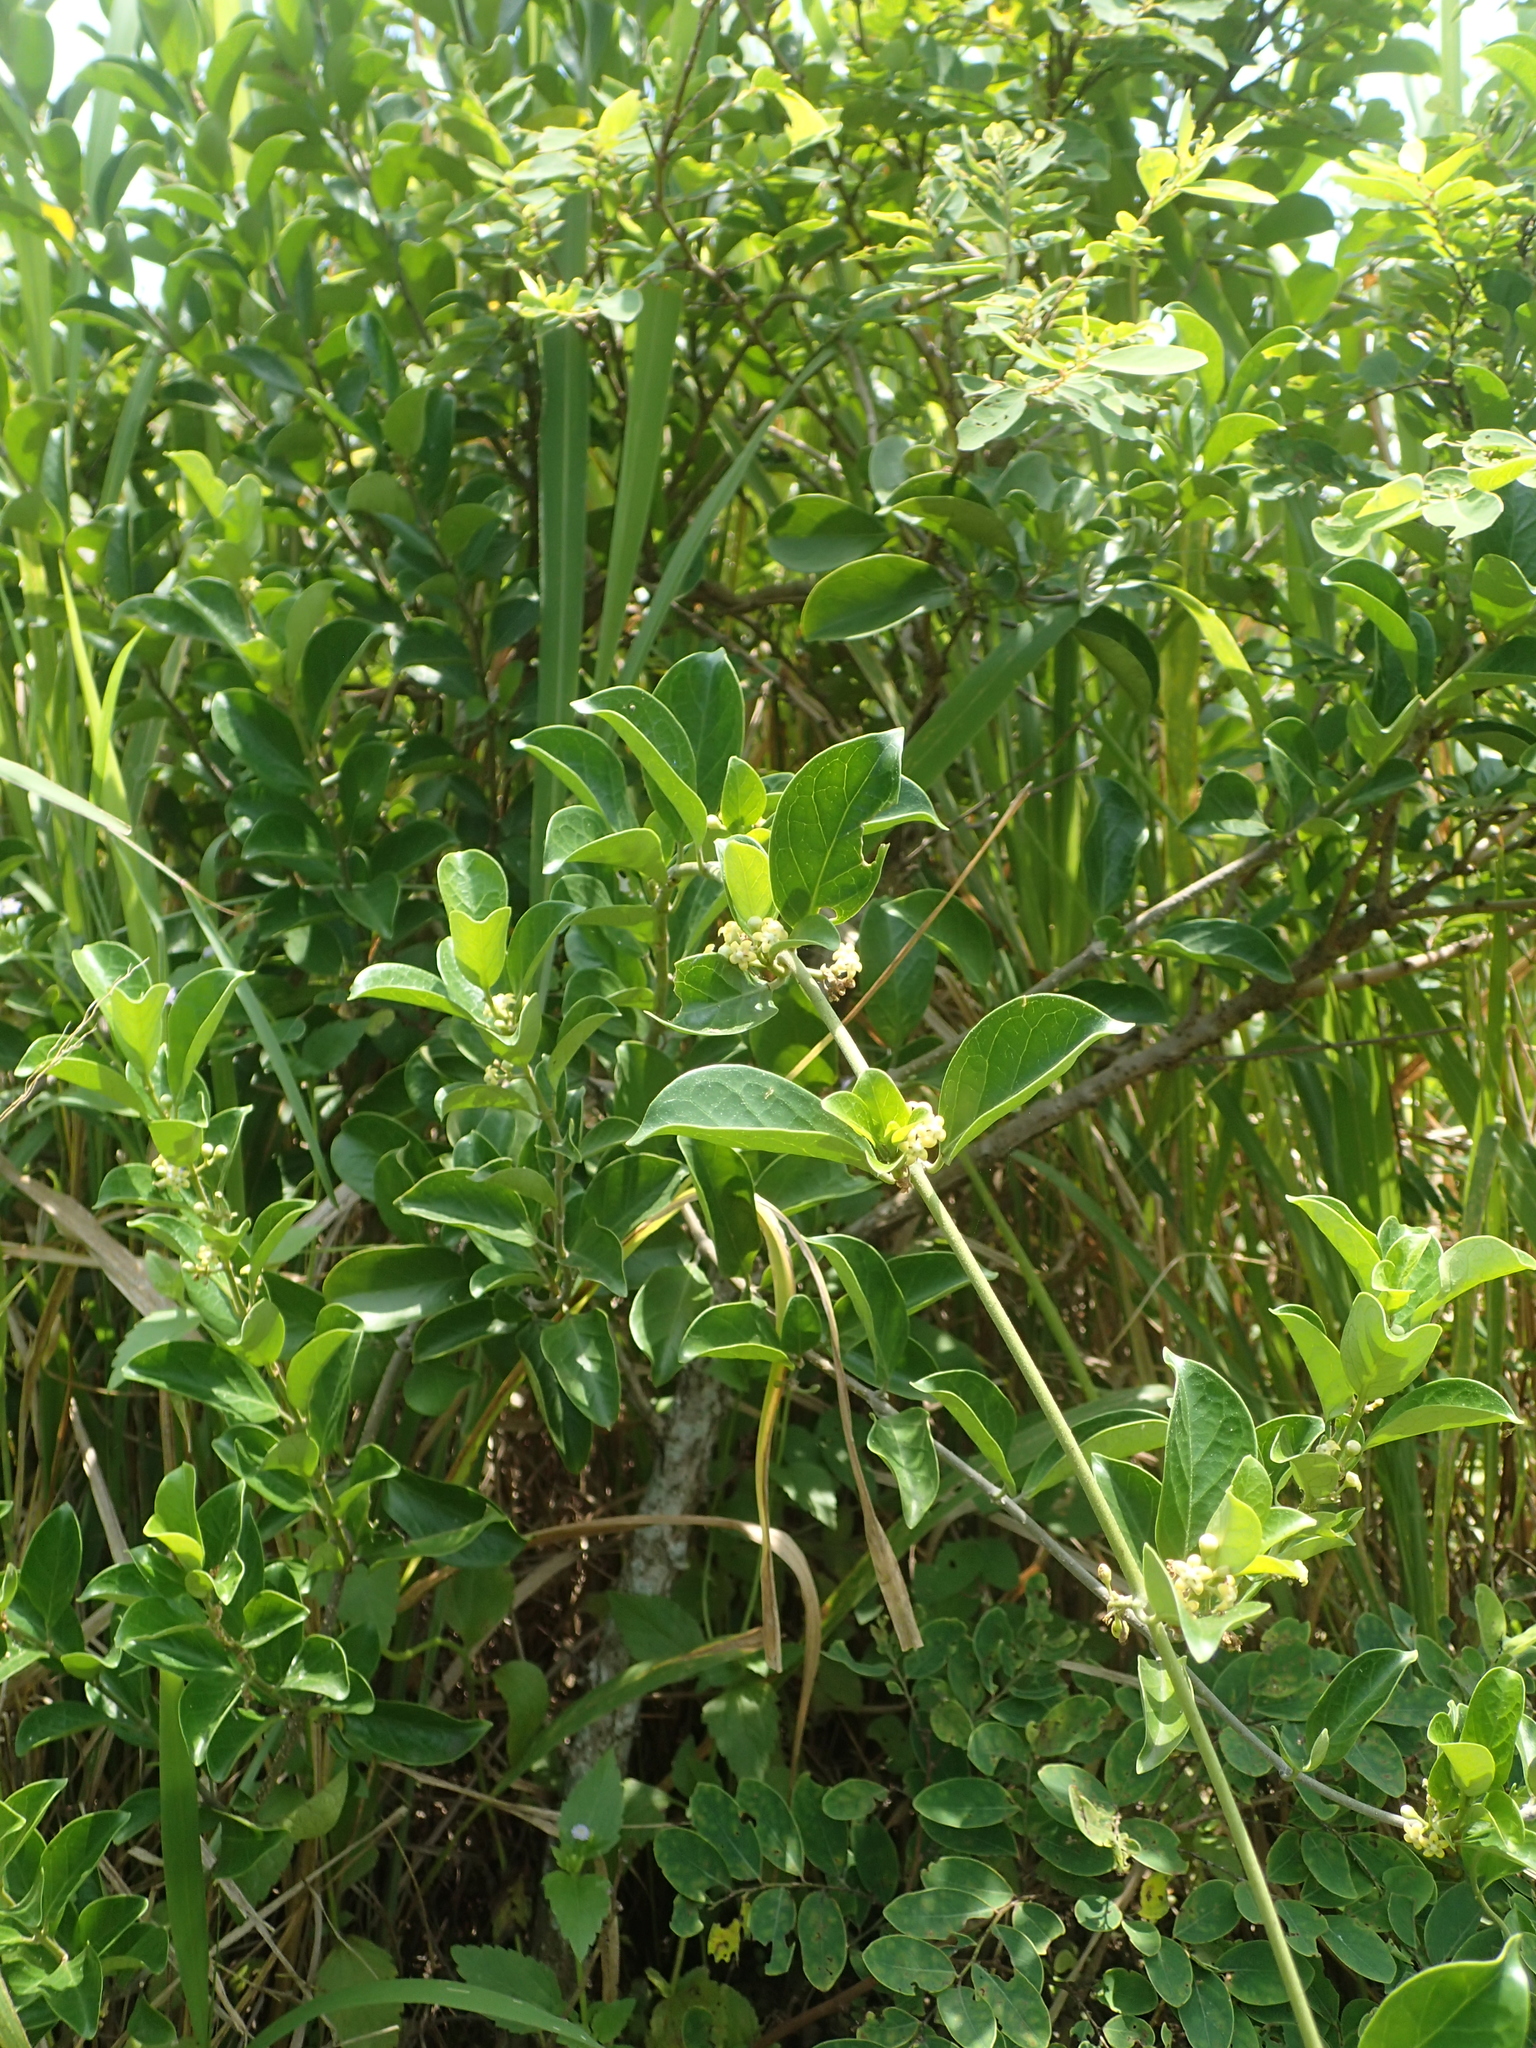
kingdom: Plantae
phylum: Tracheophyta
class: Magnoliopsida
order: Gentianales
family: Apocynaceae
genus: Gymnema
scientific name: Gymnema sylvestre
